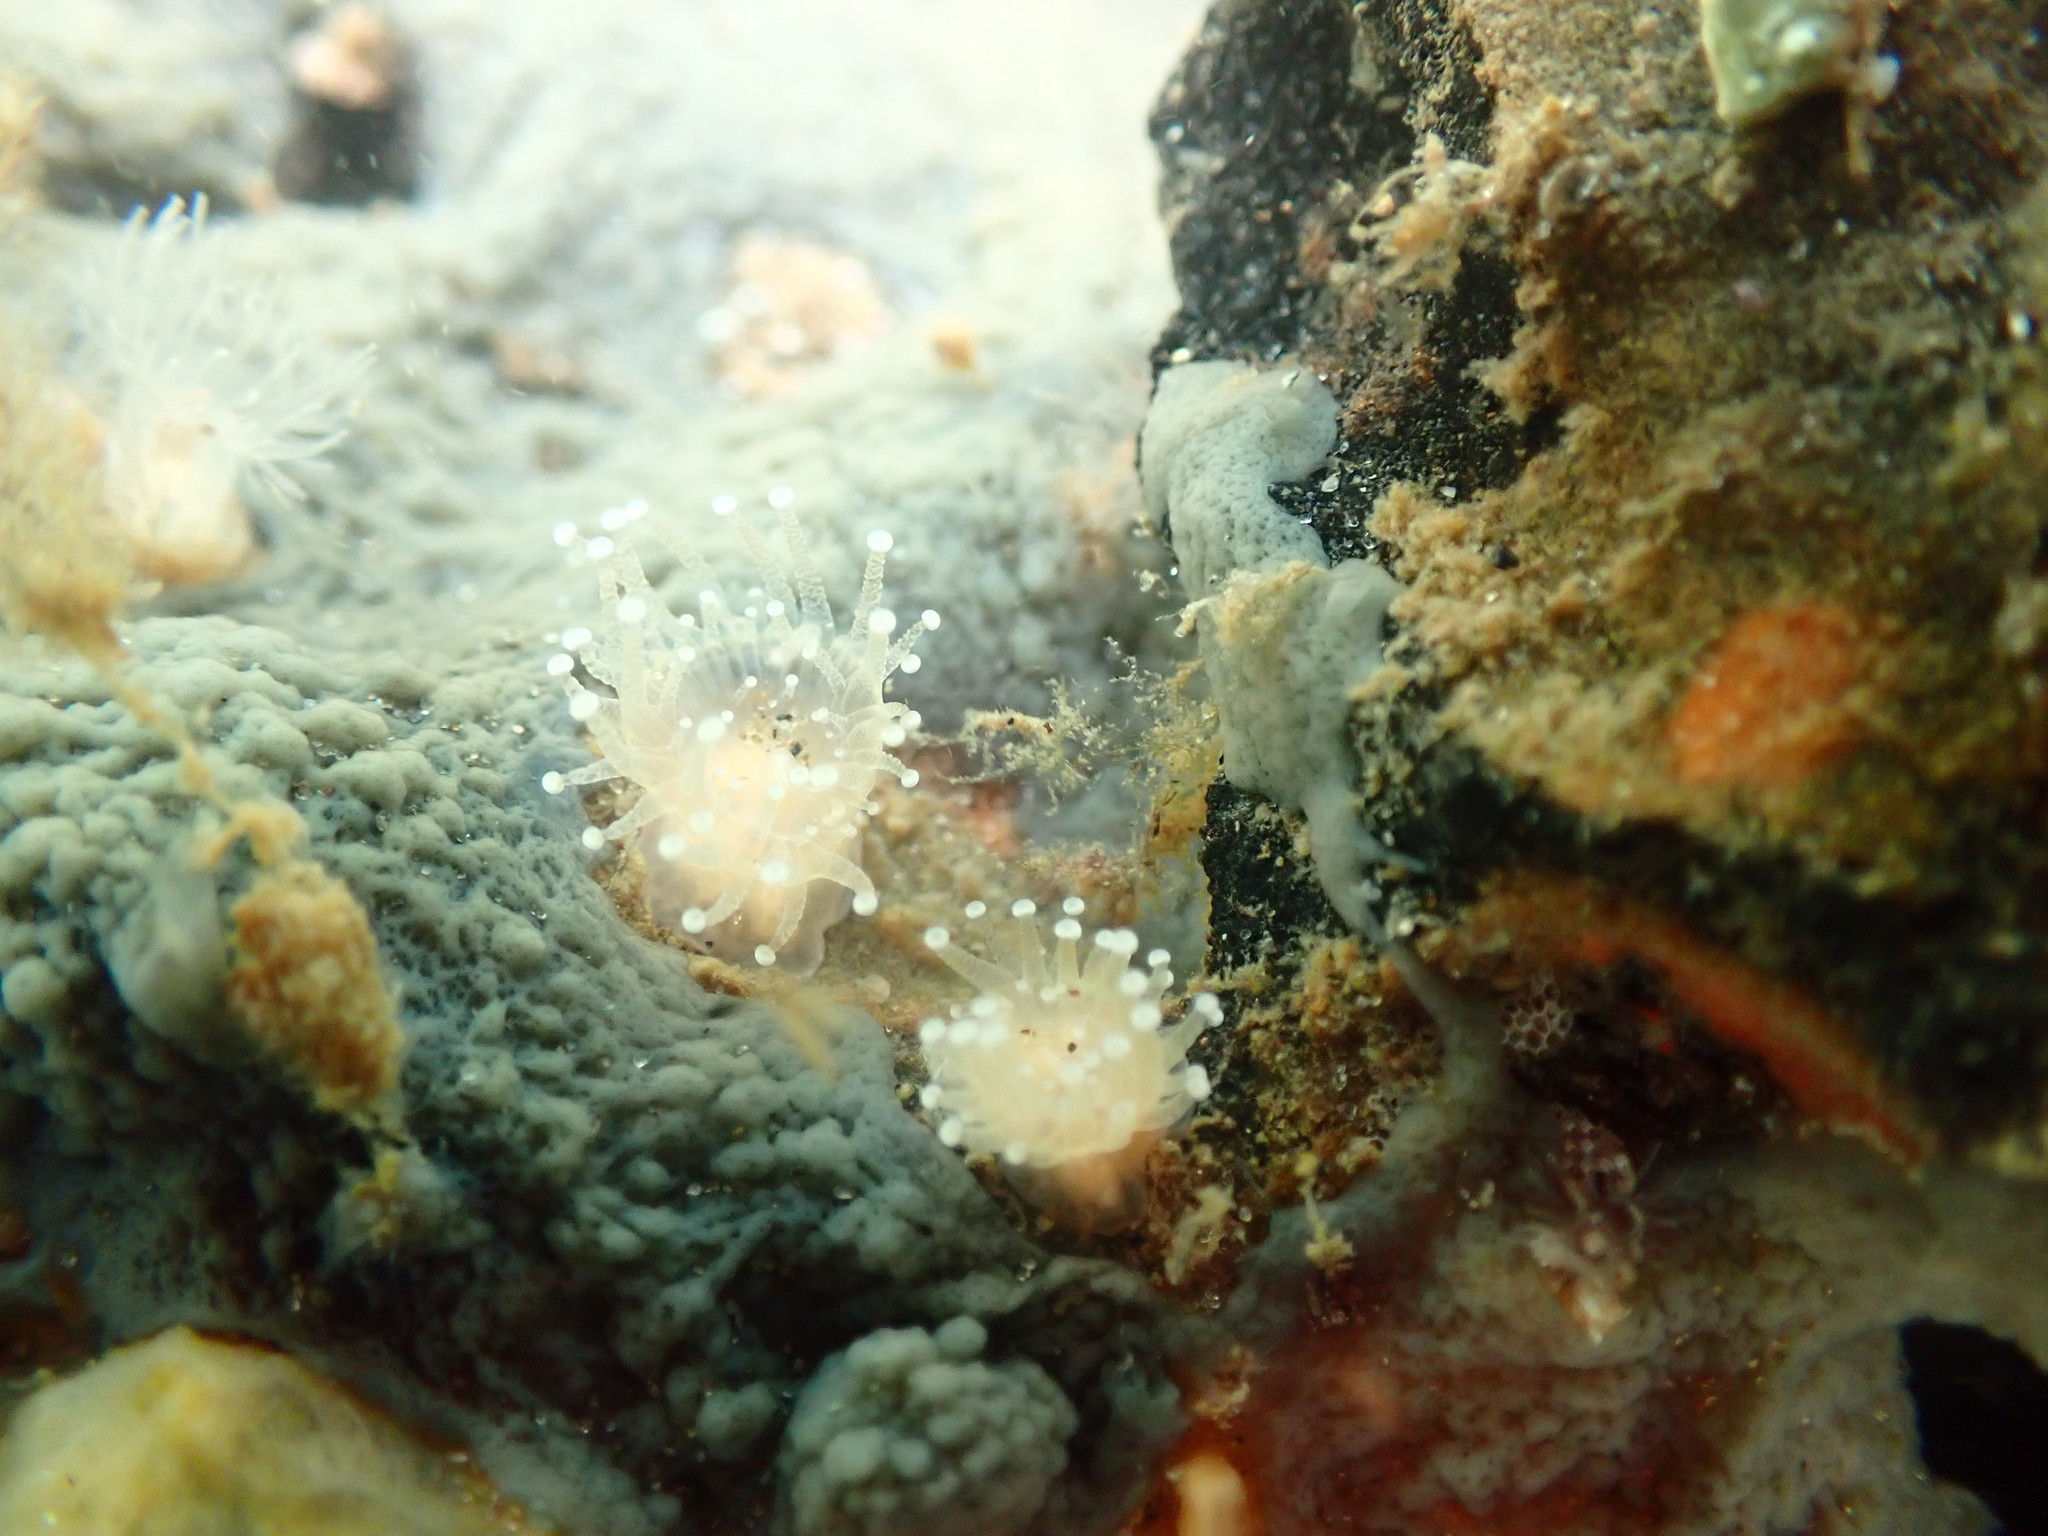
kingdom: Animalia
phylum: Cnidaria
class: Anthozoa
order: Corallimorpharia
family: Corallimorphidae
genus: Corynactis
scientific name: Corynactis australis
